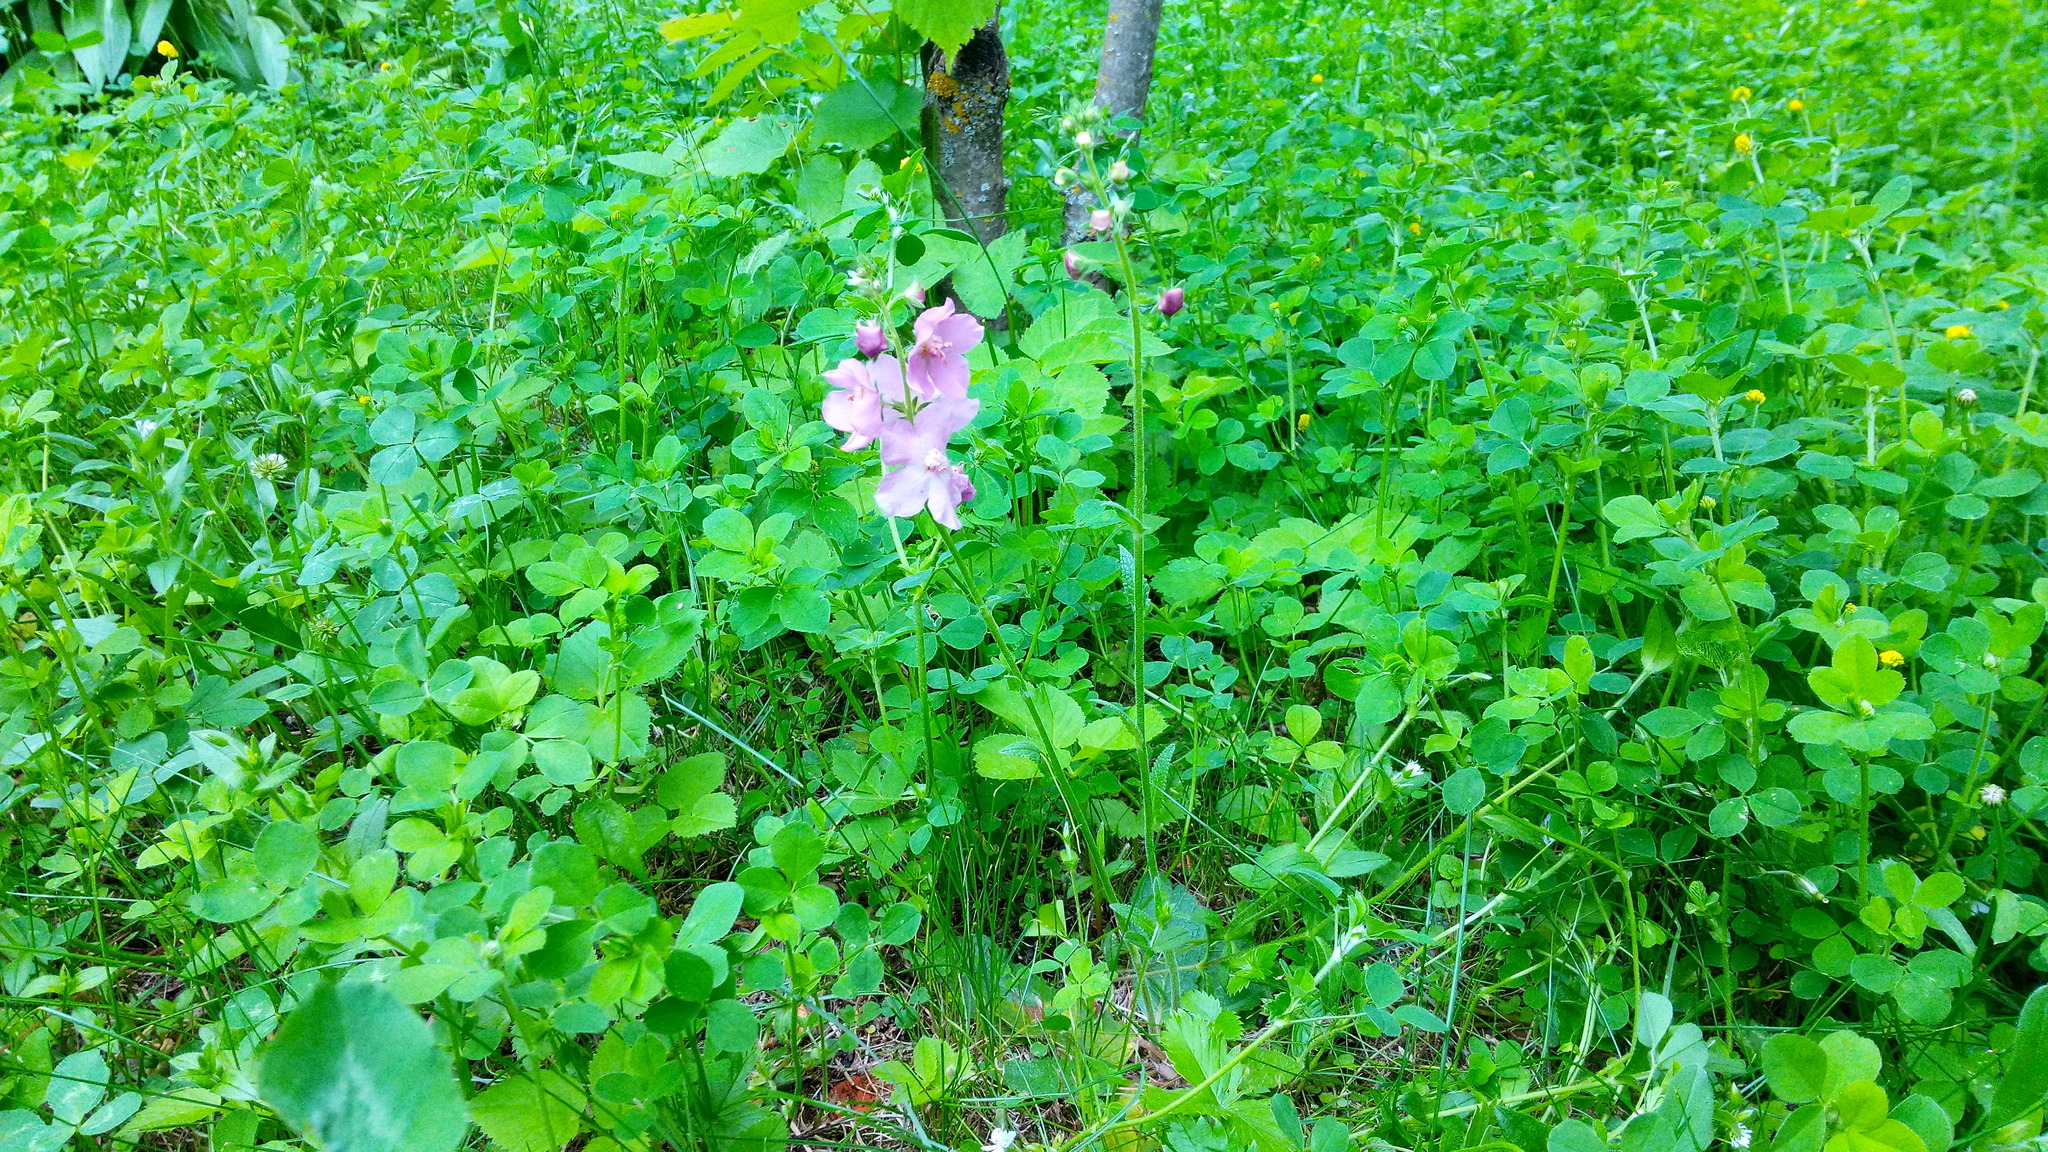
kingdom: Plantae
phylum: Tracheophyta
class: Magnoliopsida
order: Lamiales
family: Scrophulariaceae
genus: Verbascum
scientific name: Verbascum phoeniceum
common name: Purple mullein
